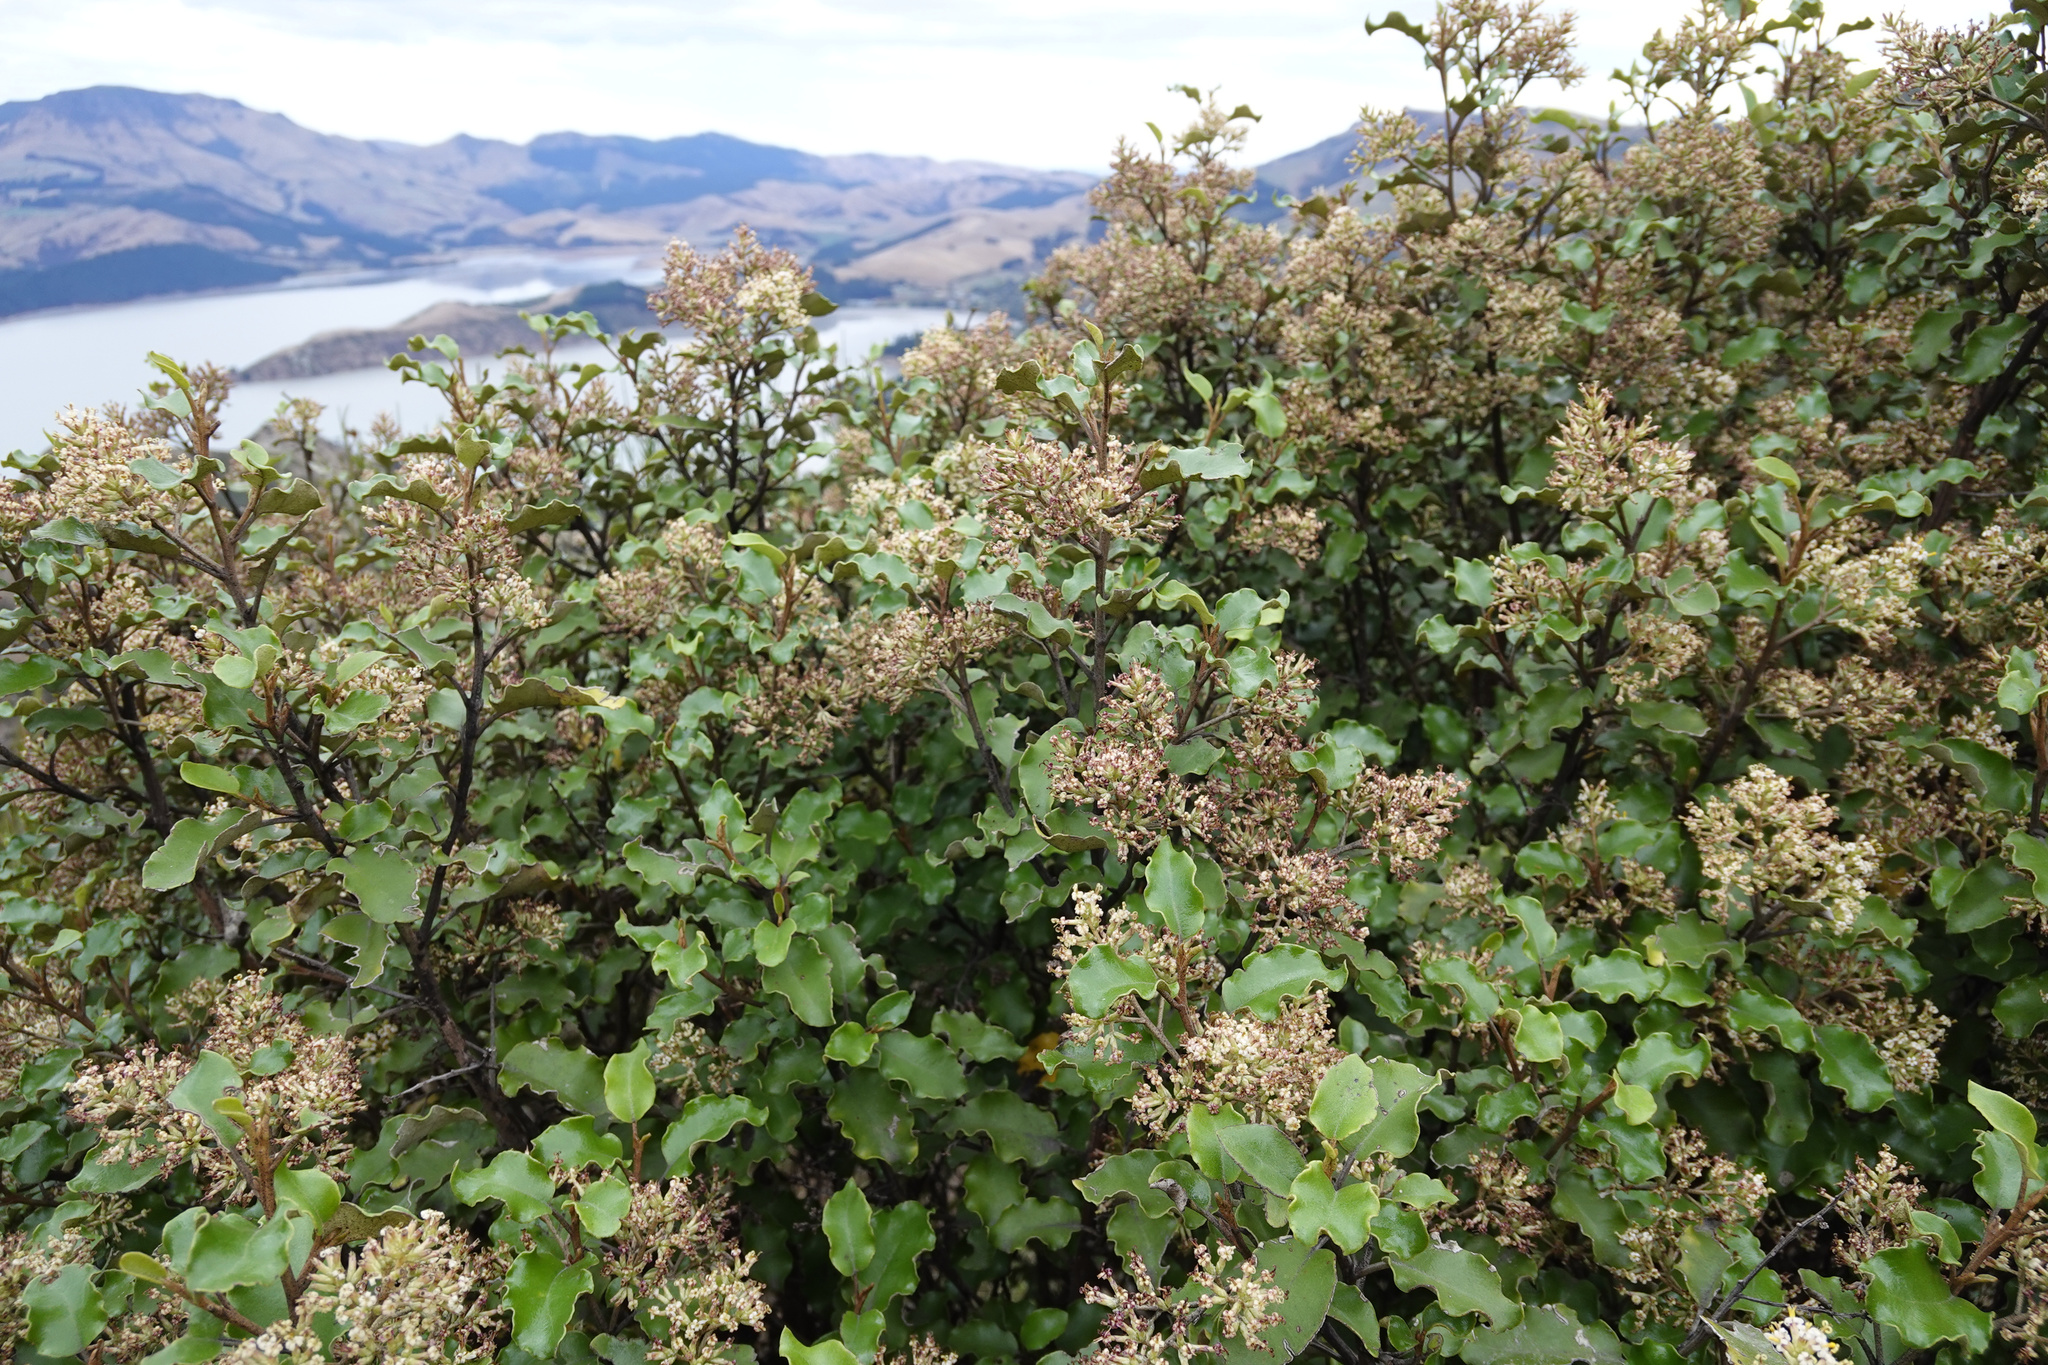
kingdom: Plantae
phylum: Tracheophyta
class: Magnoliopsida
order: Asterales
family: Asteraceae
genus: Olearia
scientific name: Olearia paniculata
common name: Akiraho
